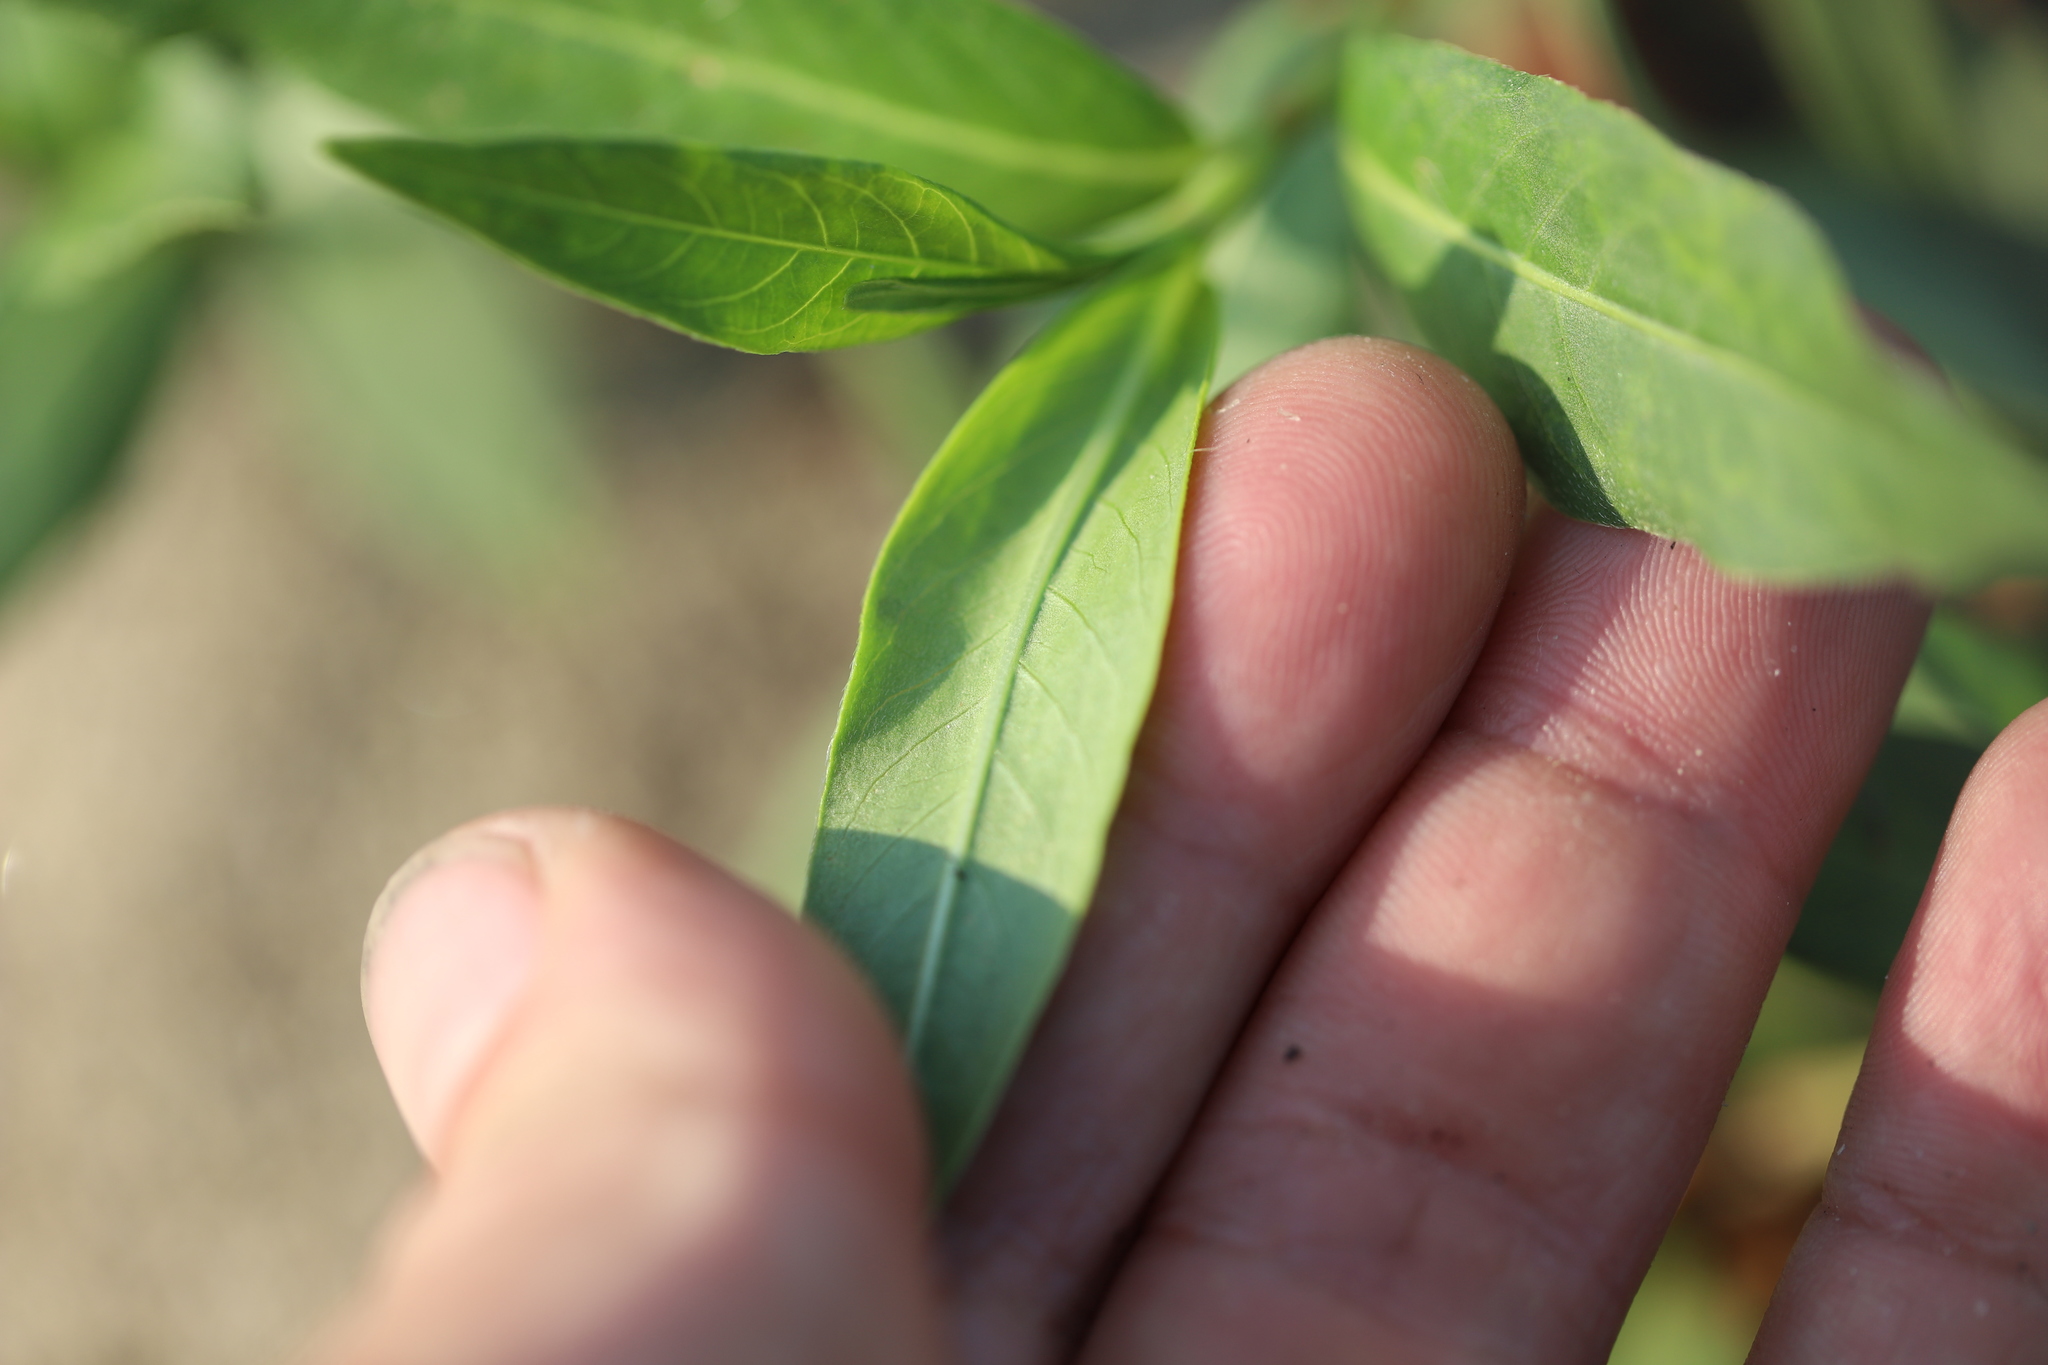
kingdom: Plantae
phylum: Tracheophyta
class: Magnoliopsida
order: Caryophyllales
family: Polygonaceae
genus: Persicaria
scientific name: Persicaria amphibia
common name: Amphibious bistort
